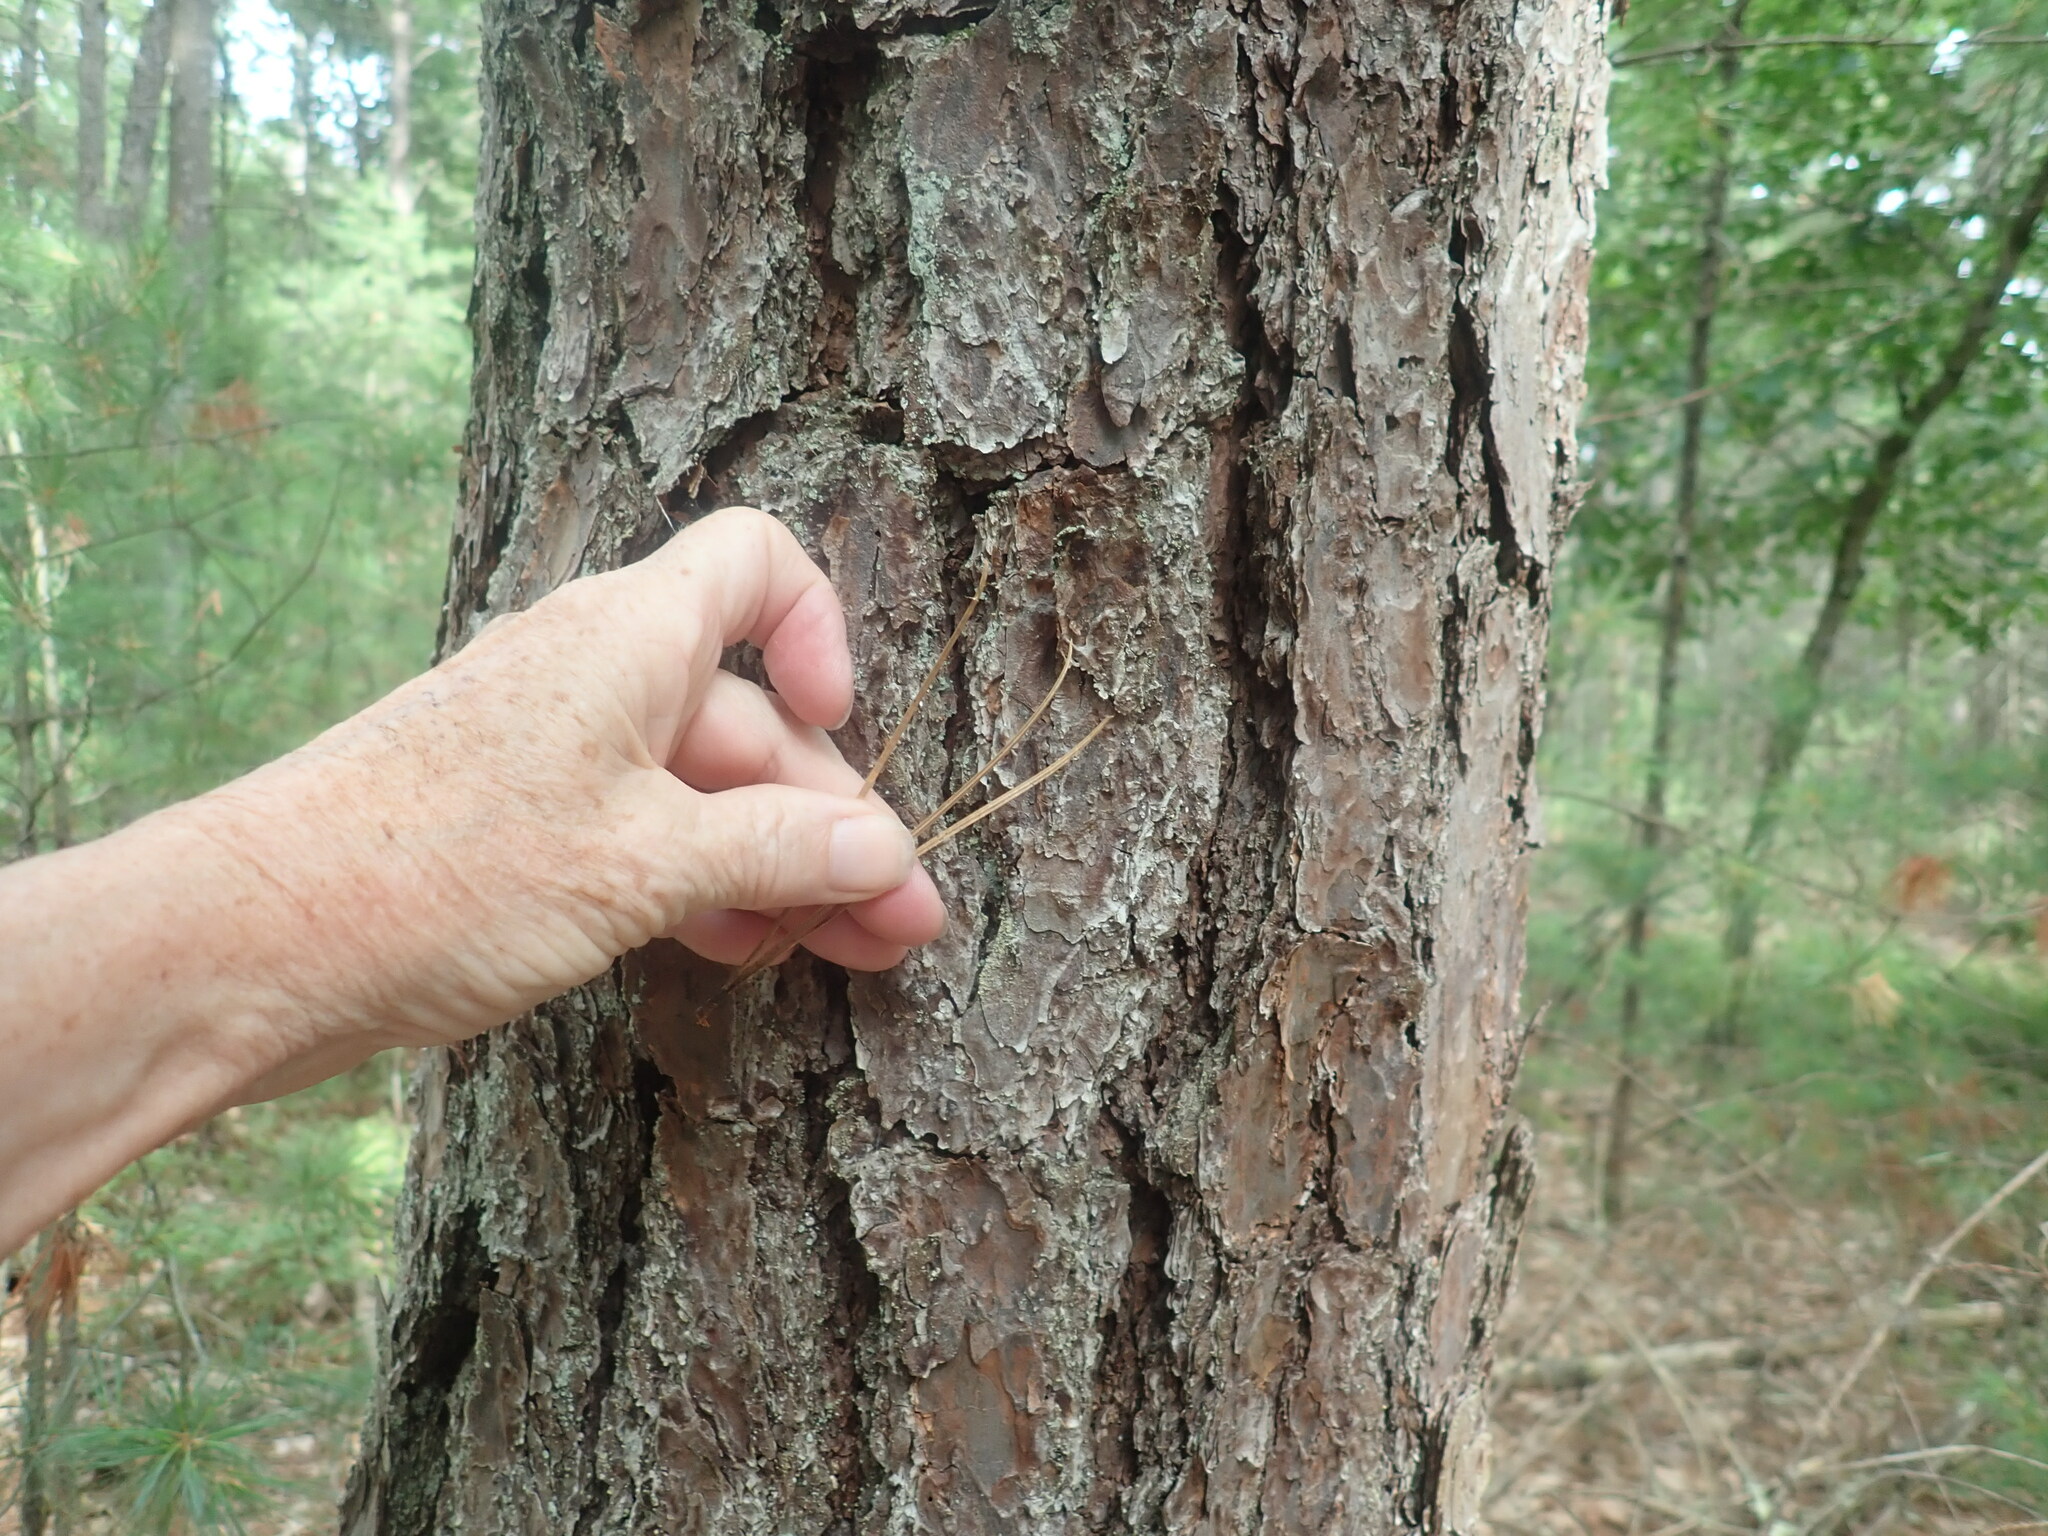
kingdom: Plantae
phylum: Tracheophyta
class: Pinopsida
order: Pinales
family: Pinaceae
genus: Pinus
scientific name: Pinus rigida
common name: Pitch pine
